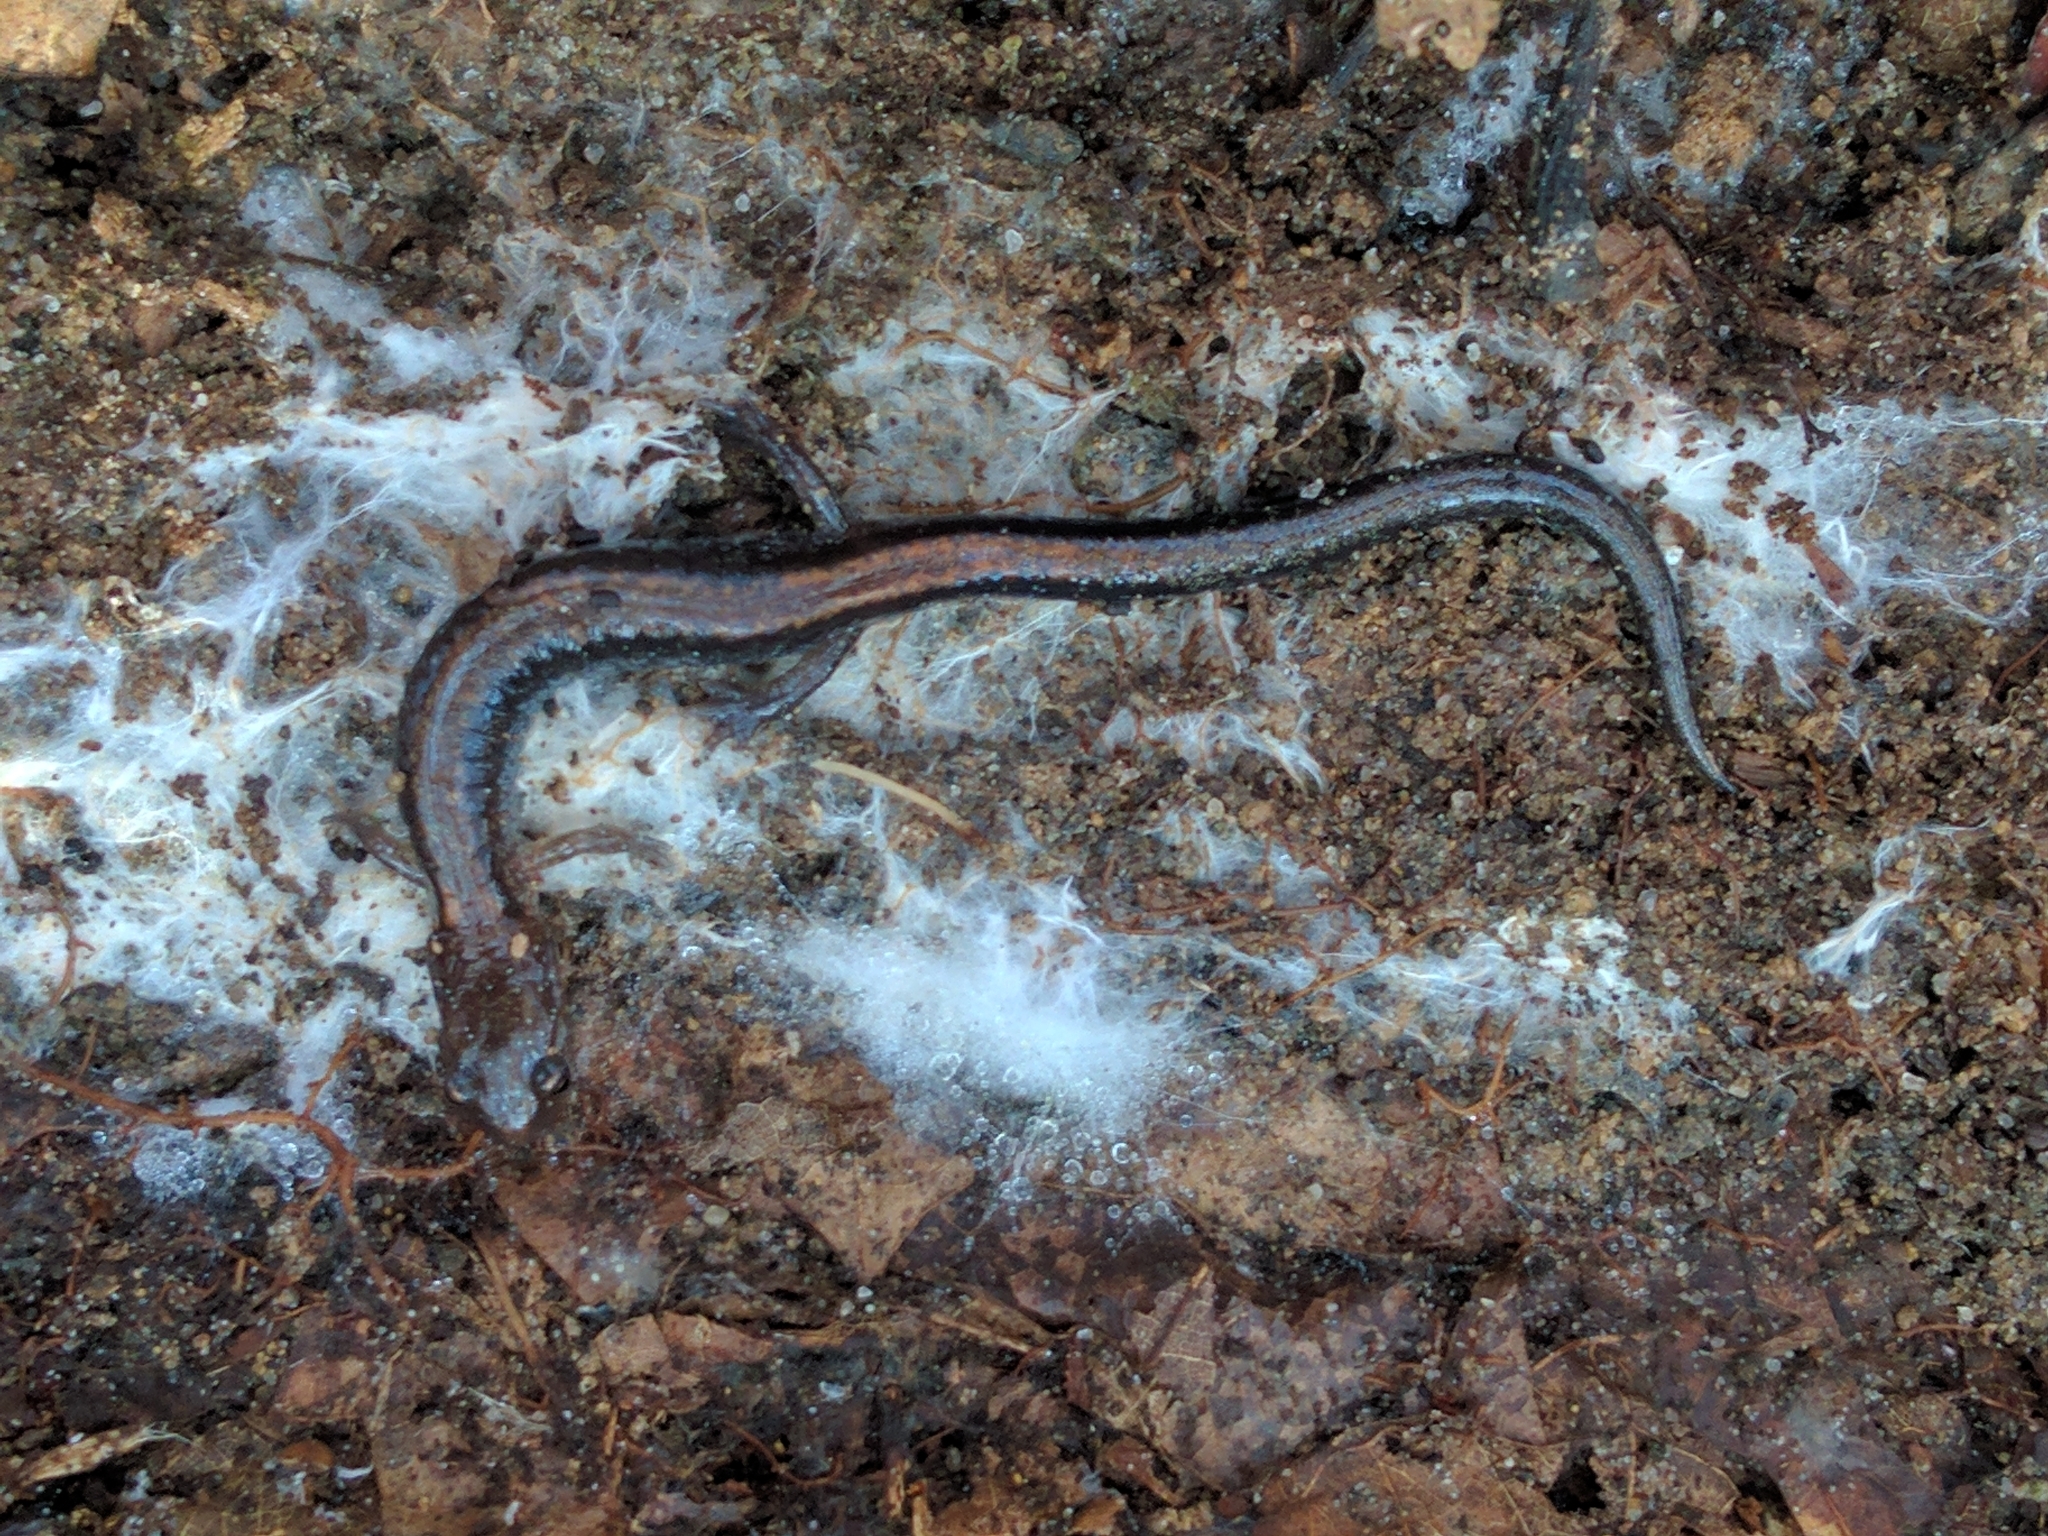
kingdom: Animalia
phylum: Chordata
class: Amphibia
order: Caudata
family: Plethodontidae
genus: Plethodon
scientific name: Plethodon cinereus
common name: Redback salamander
